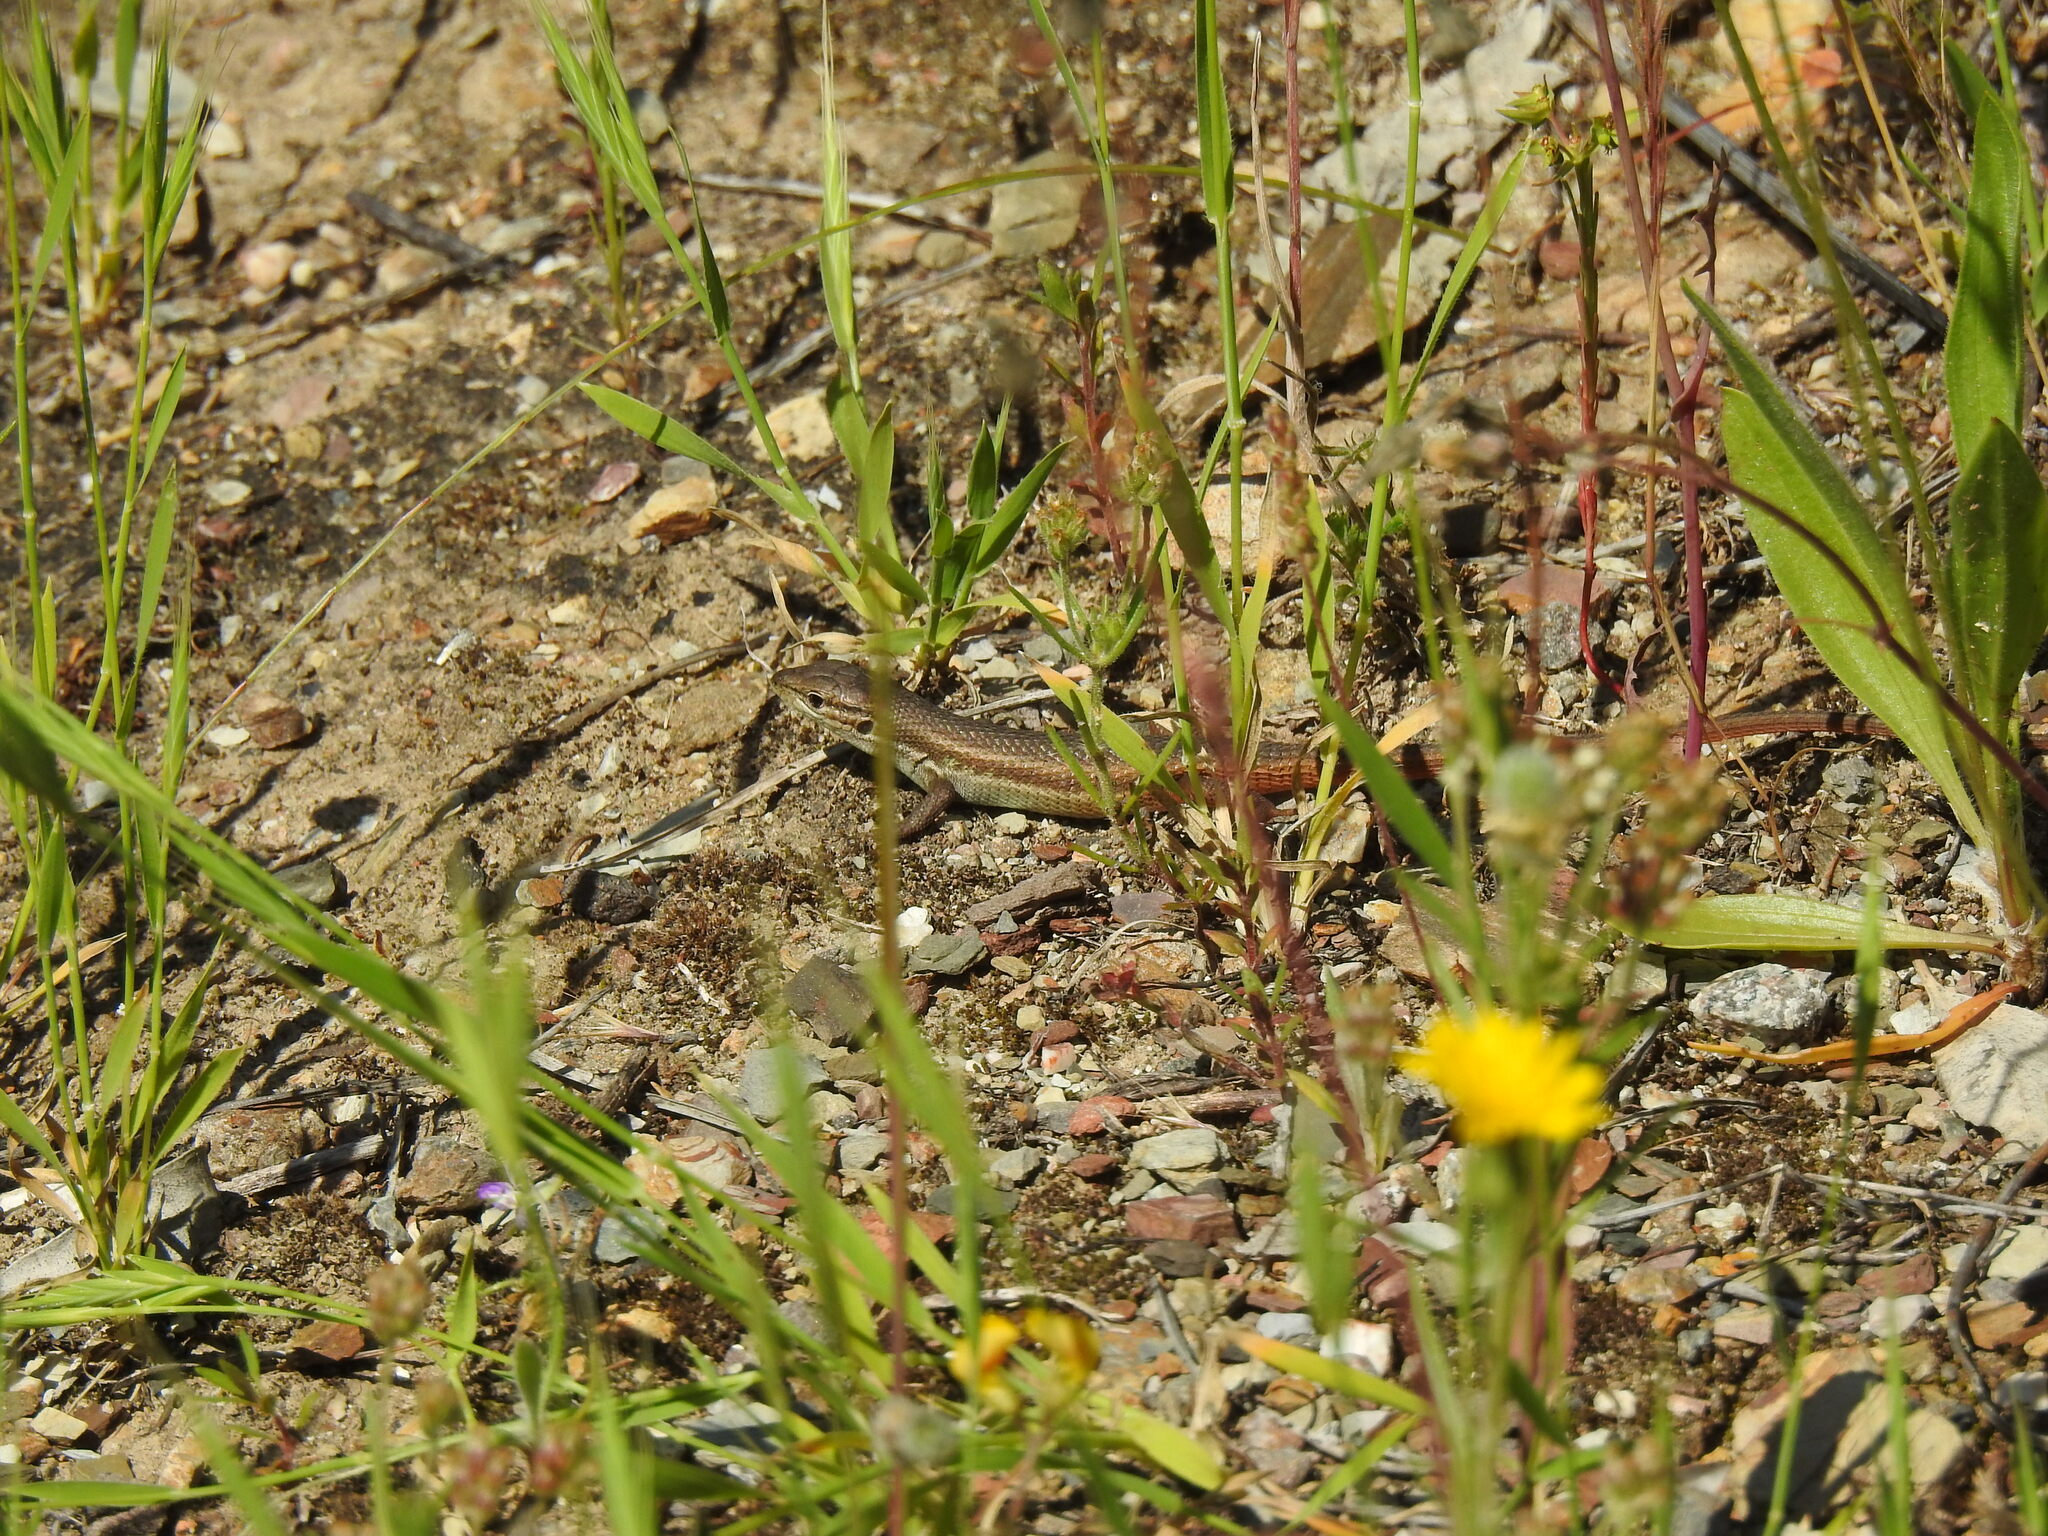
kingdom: Animalia
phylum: Chordata
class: Squamata
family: Lacertidae
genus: Psammodromus
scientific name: Psammodromus algirus
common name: Algerian psammodromus
